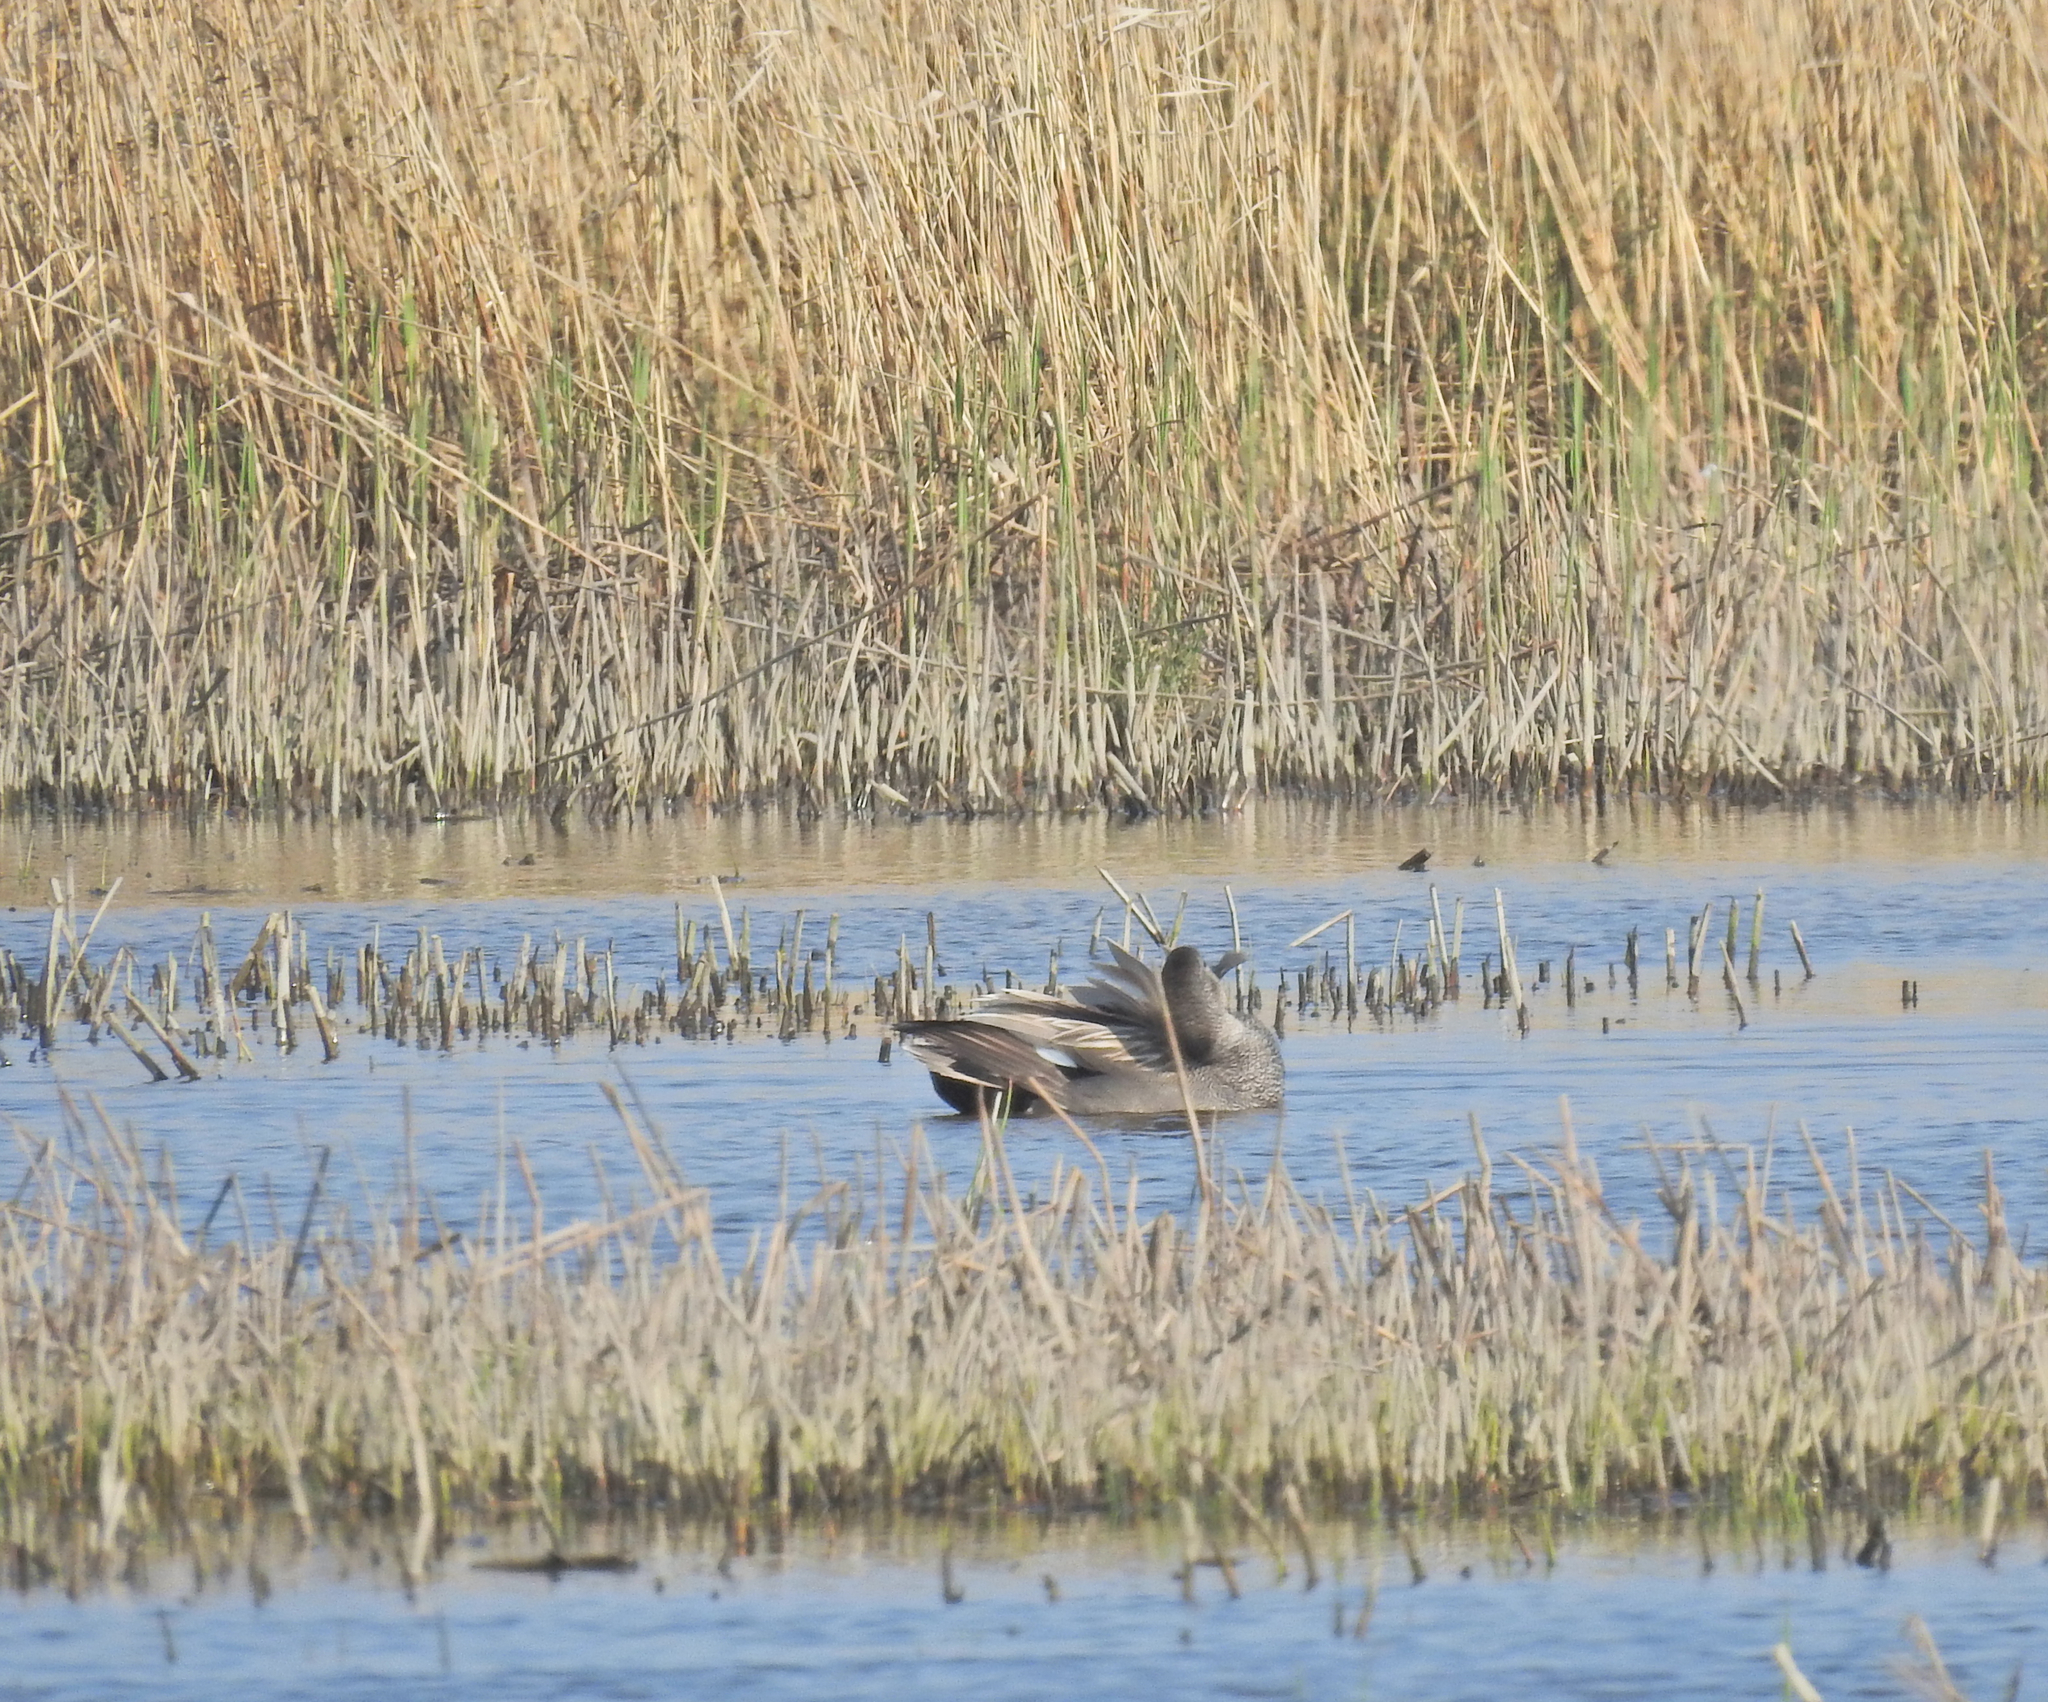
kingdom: Animalia
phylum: Chordata
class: Aves
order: Anseriformes
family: Anatidae
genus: Mareca
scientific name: Mareca strepera
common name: Gadwall
